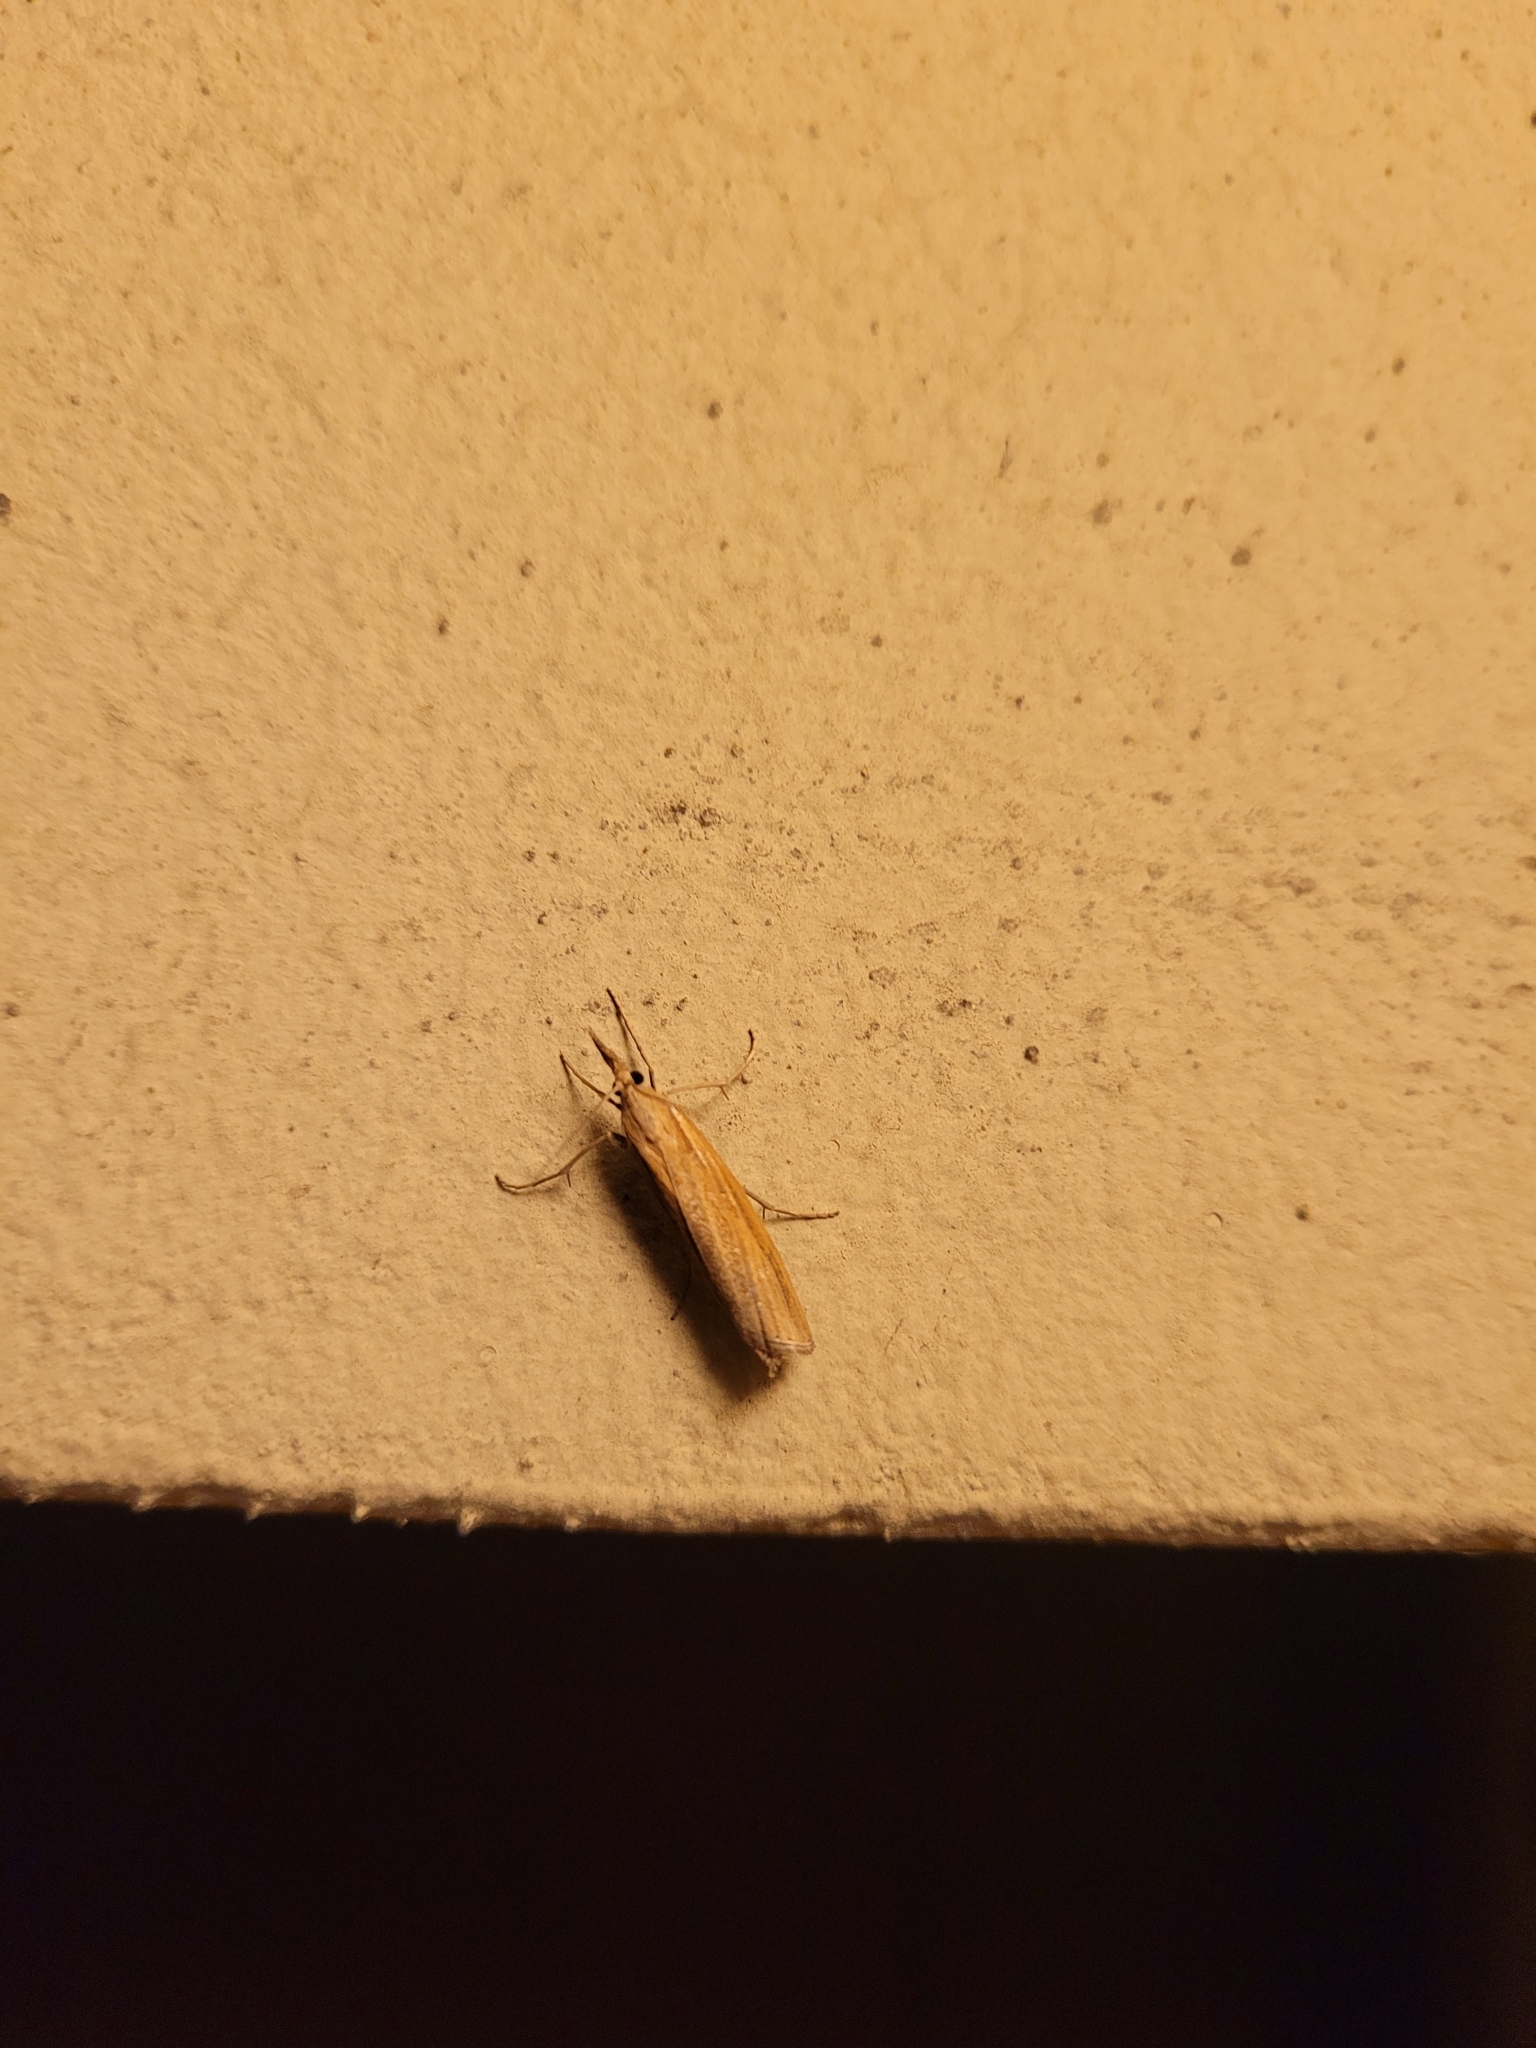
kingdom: Animalia
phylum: Arthropoda
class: Insecta
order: Lepidoptera
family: Crambidae
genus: Agriphila
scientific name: Agriphila tristellus
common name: Common grass-veneer
